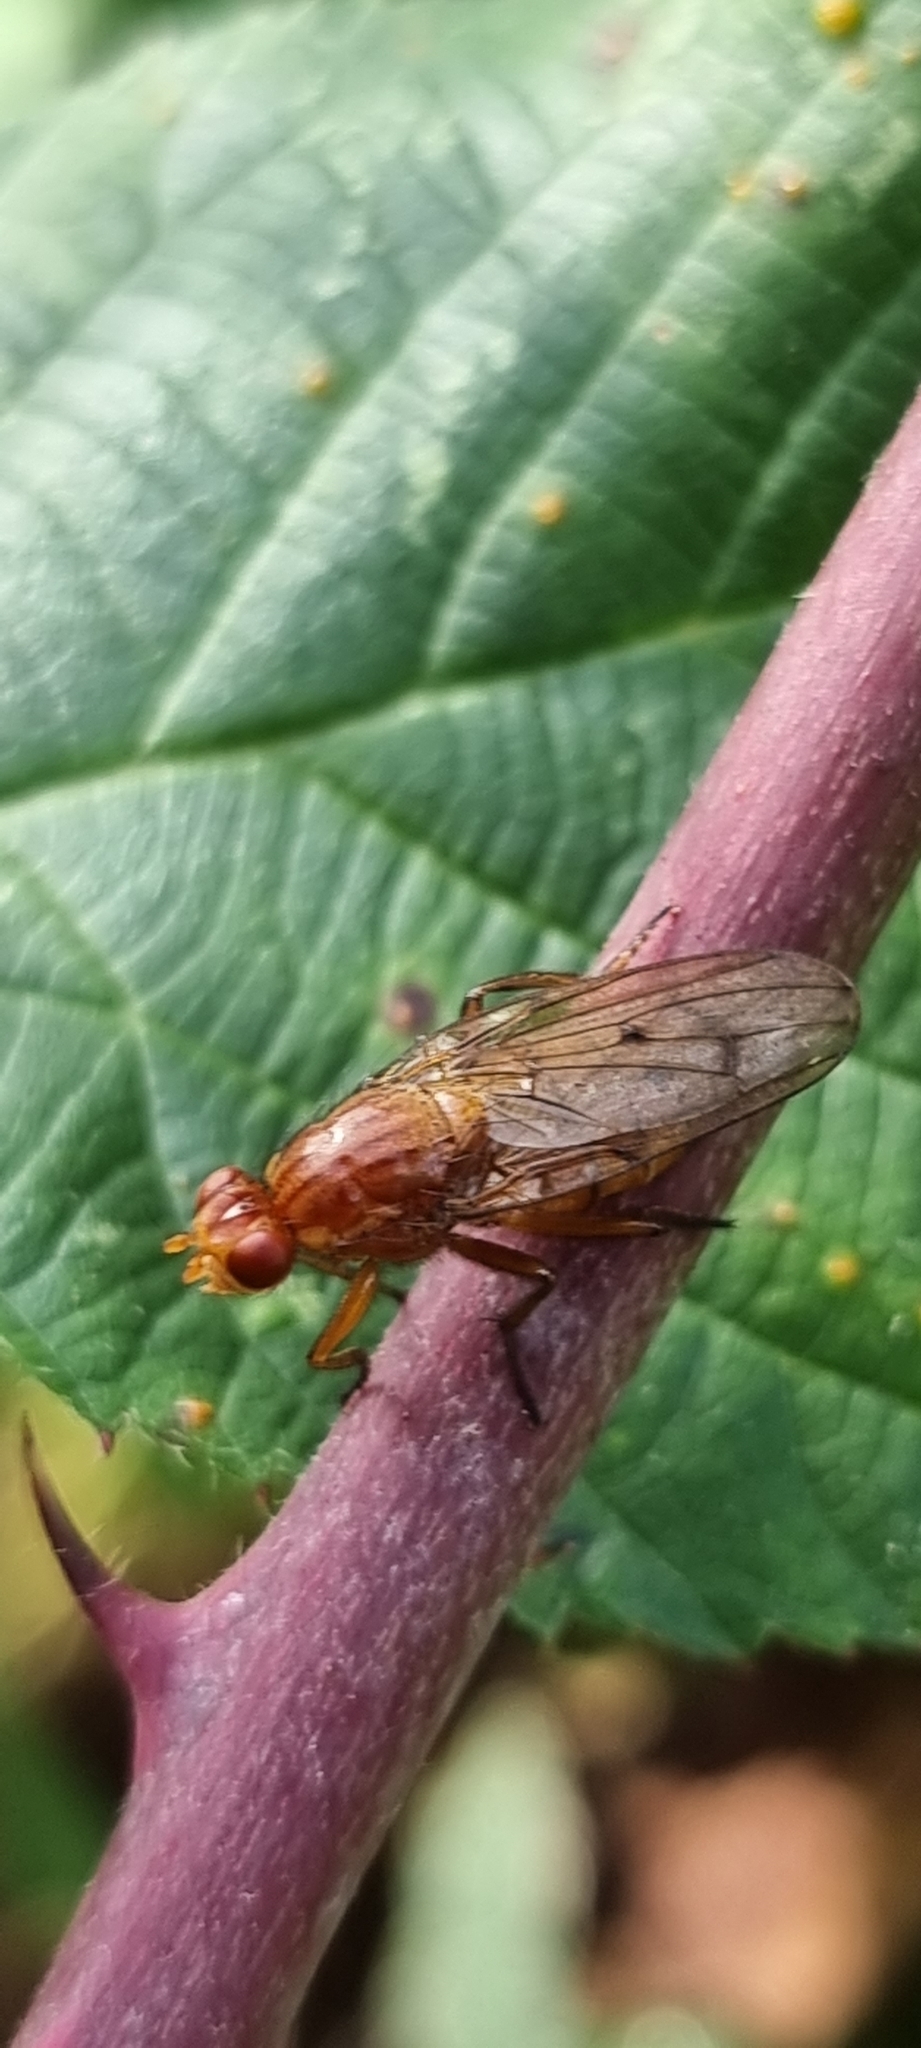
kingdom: Animalia
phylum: Arthropoda
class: Insecta
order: Diptera
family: Dryomyzidae
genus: Dryomyza
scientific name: Dryomyza anilis
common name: Marsh fly
